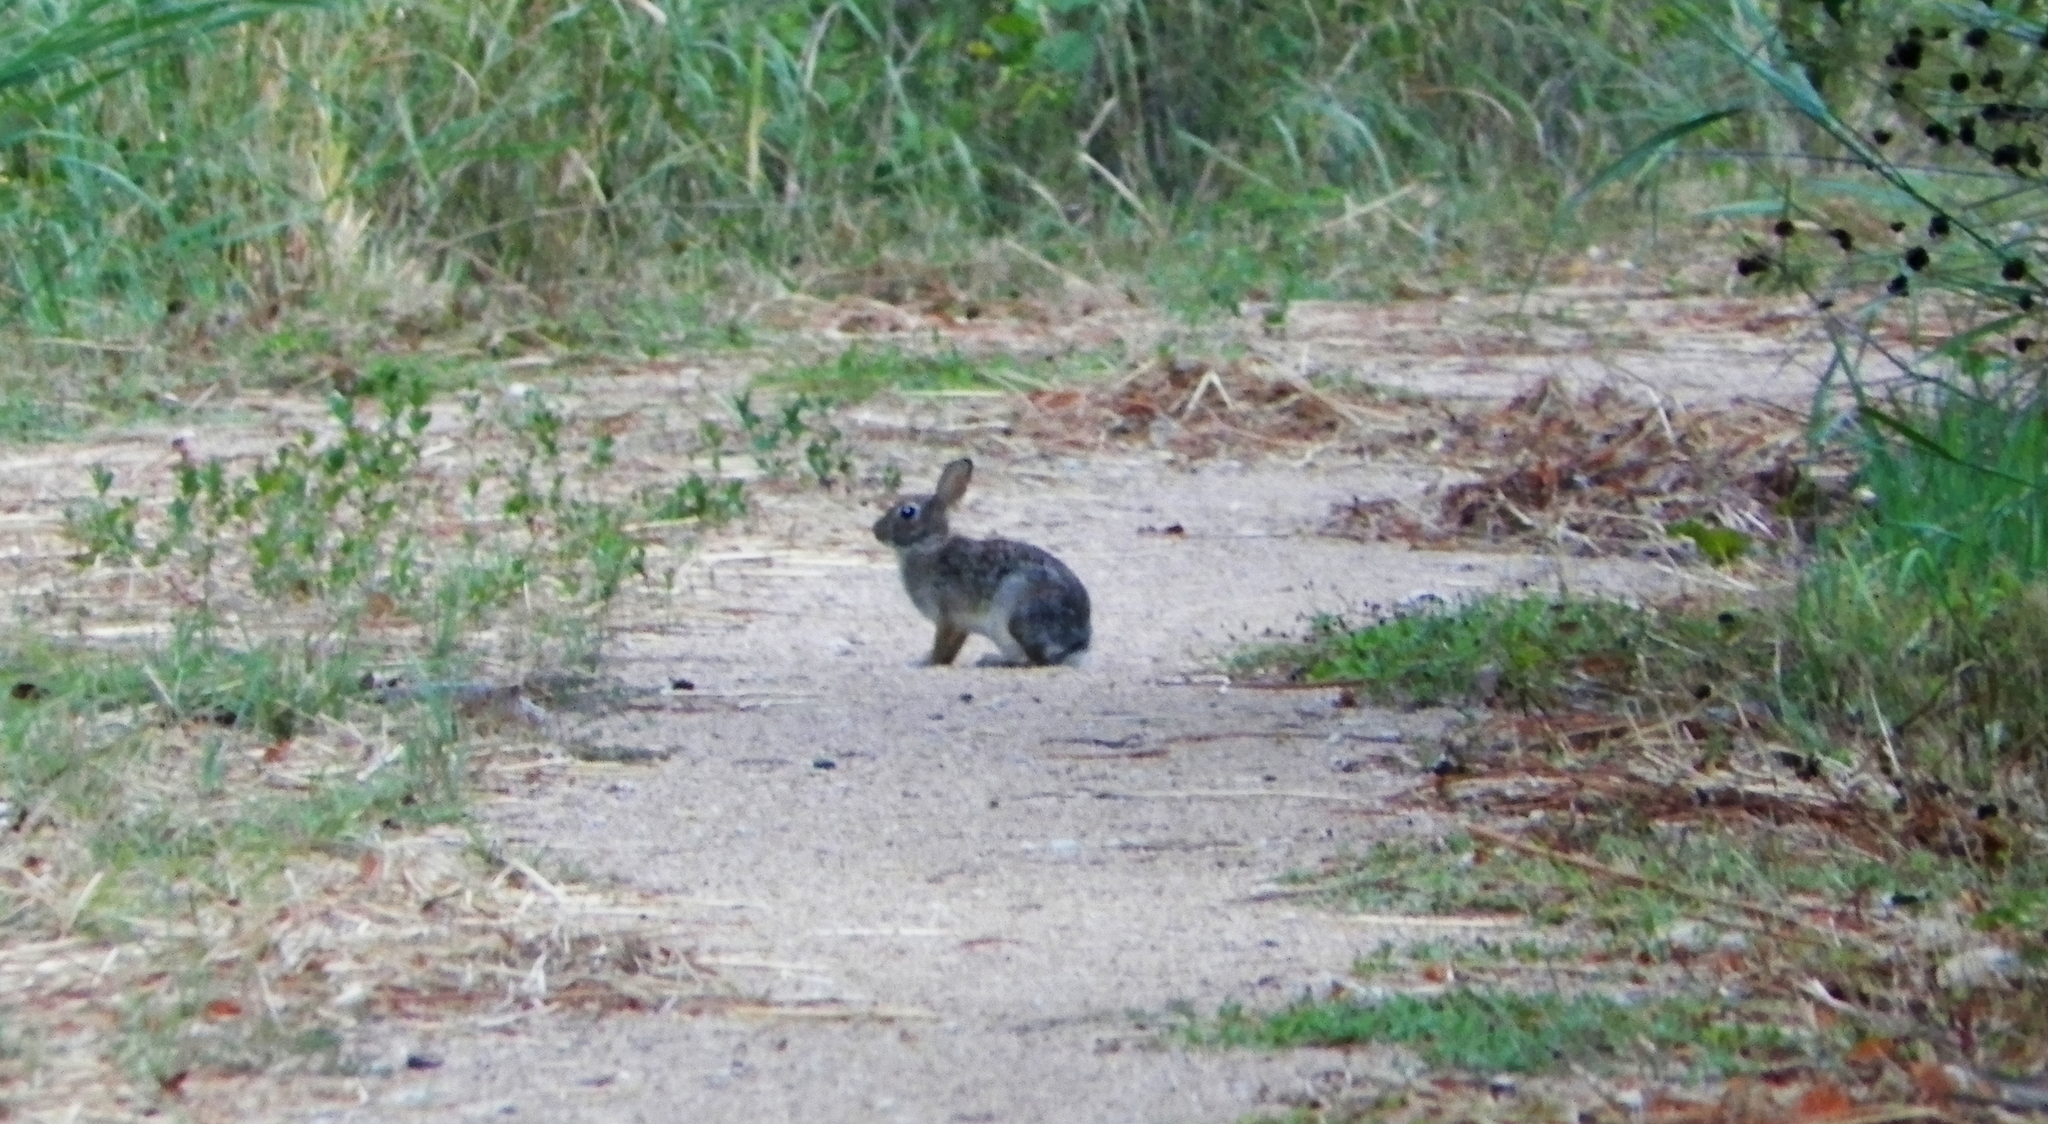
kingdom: Animalia
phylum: Chordata
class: Mammalia
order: Lagomorpha
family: Leporidae
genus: Sylvilagus
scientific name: Sylvilagus floridanus
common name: Eastern cottontail
